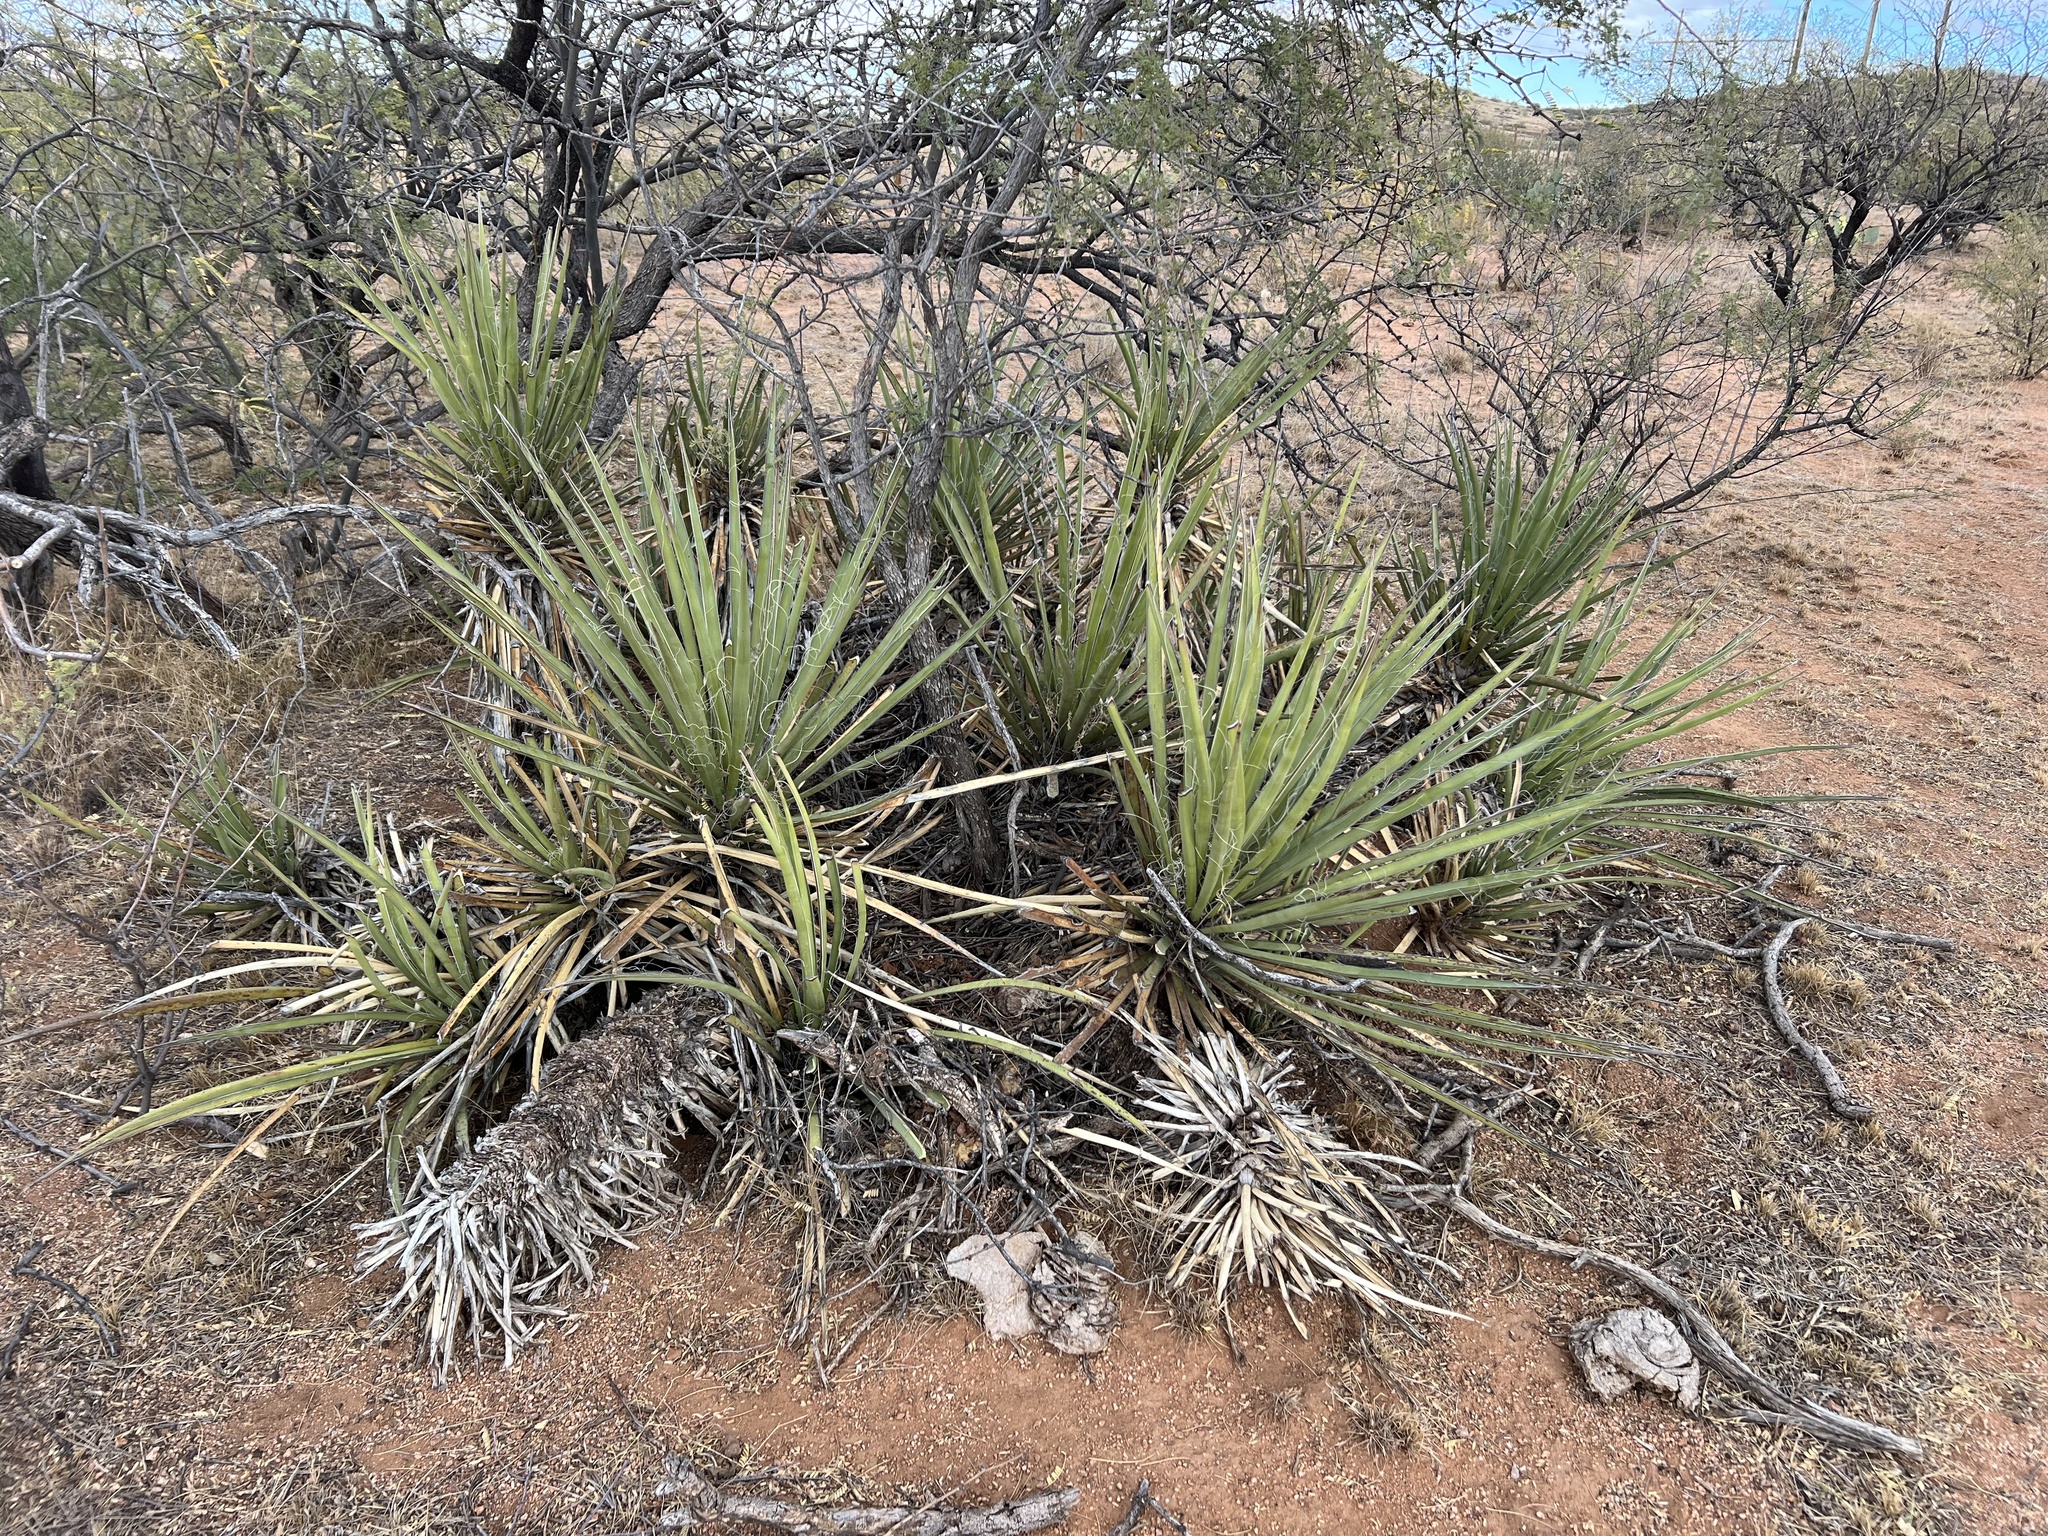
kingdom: Plantae
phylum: Tracheophyta
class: Liliopsida
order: Asparagales
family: Asparagaceae
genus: Yucca
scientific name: Yucca baccata
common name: Banana yucca
